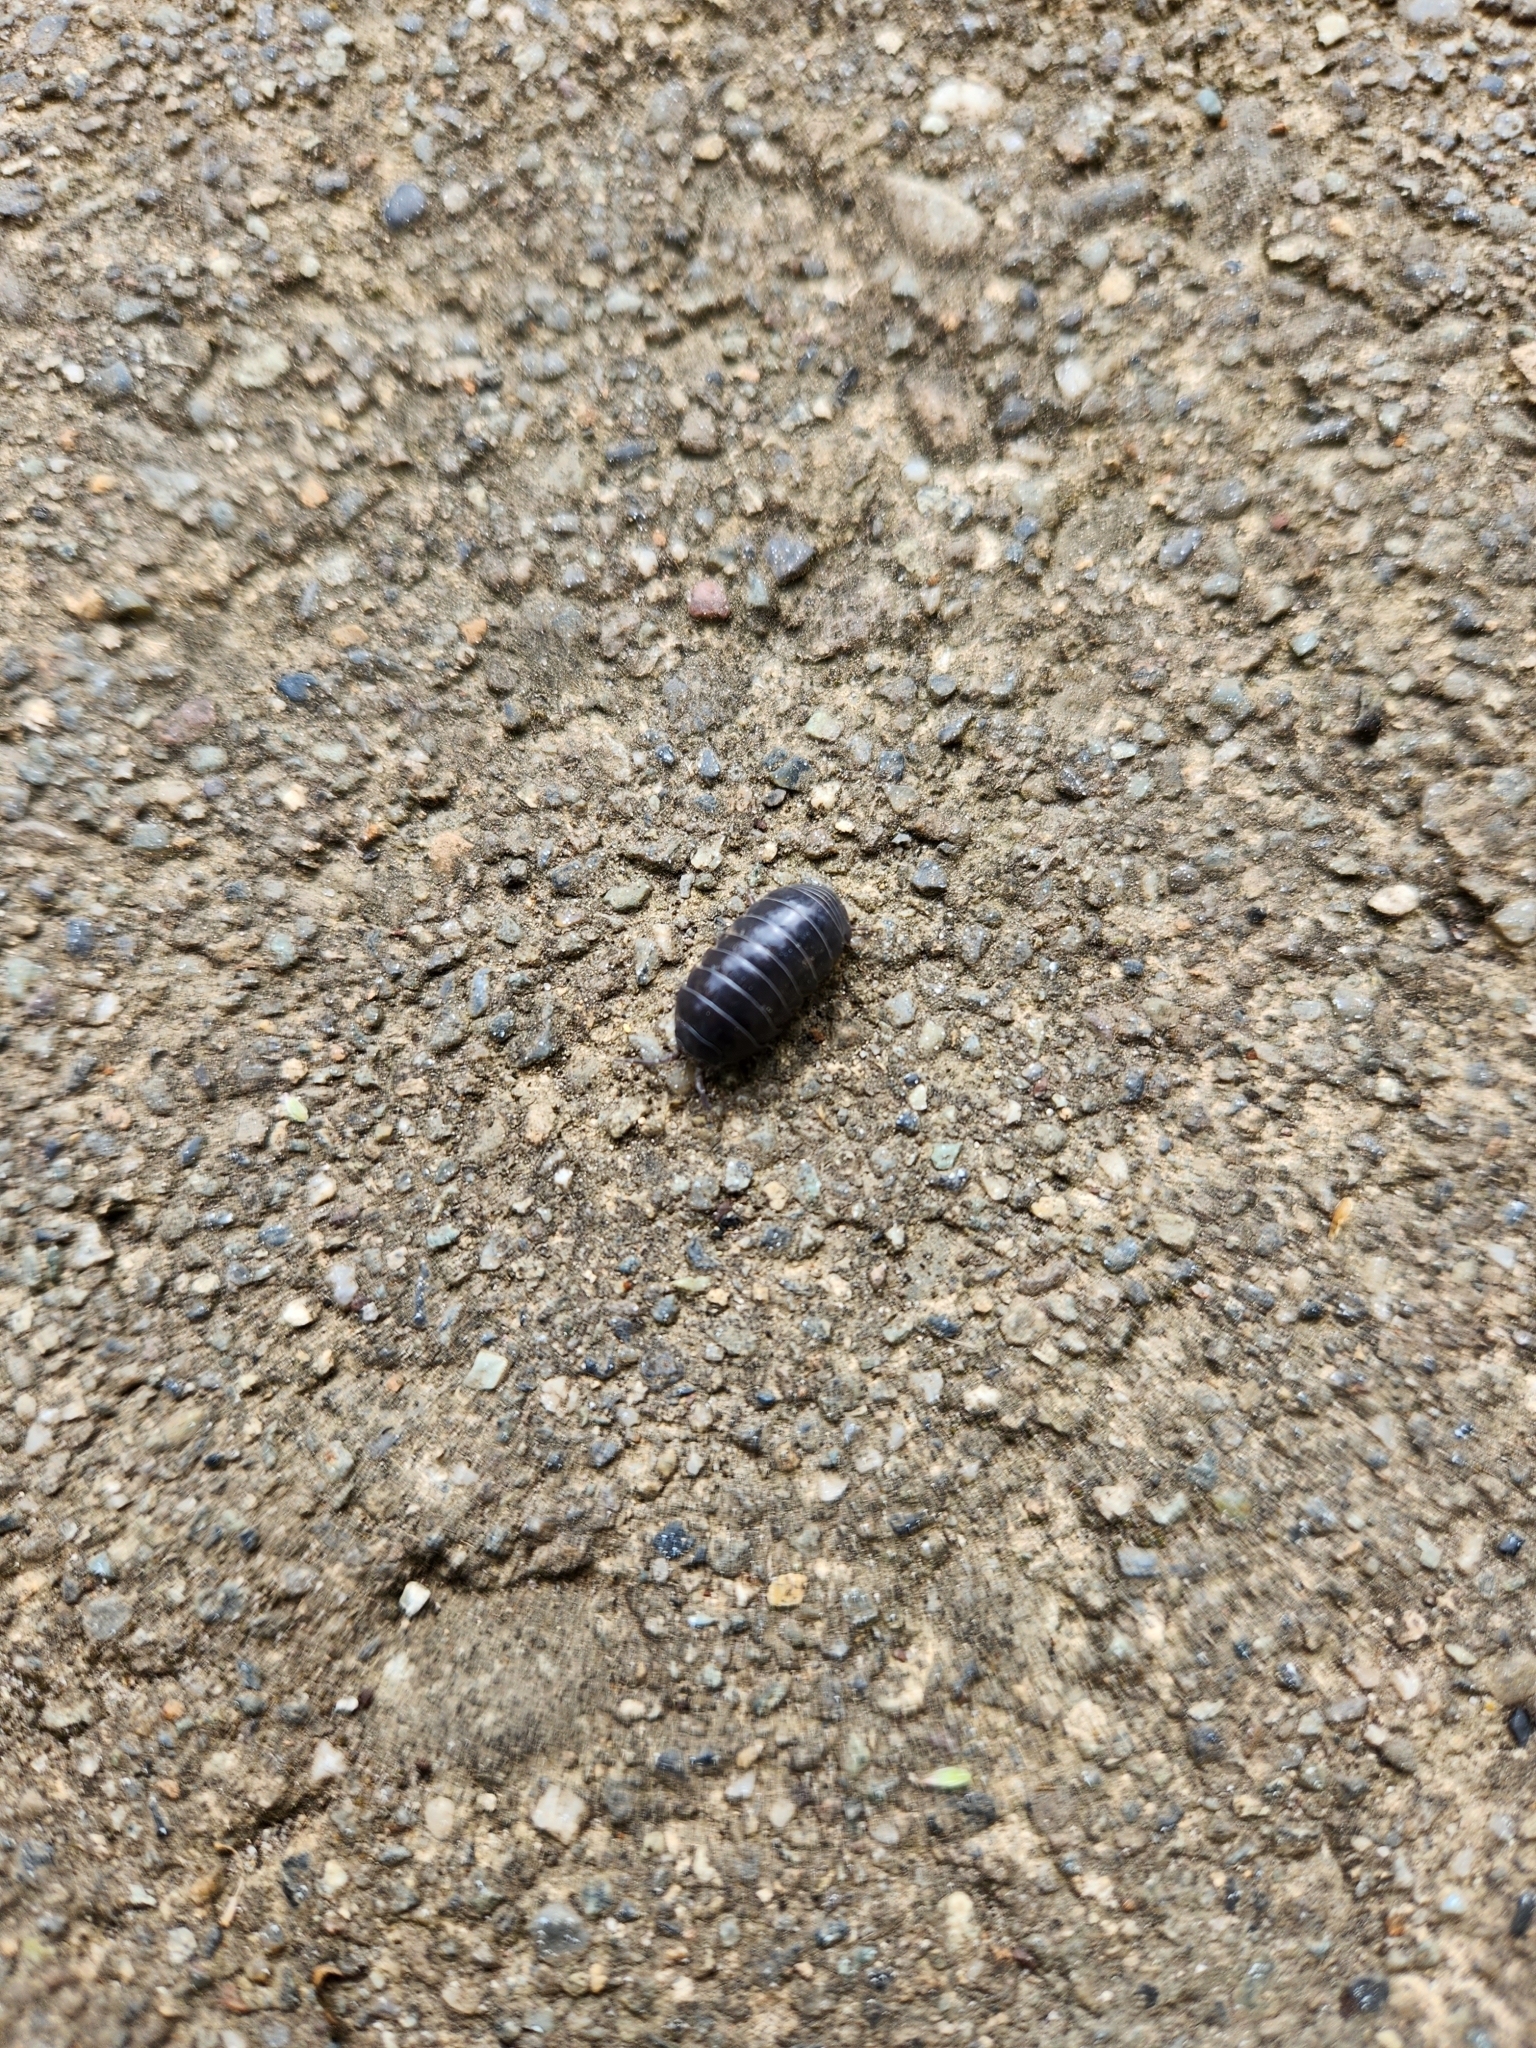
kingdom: Animalia
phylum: Arthropoda
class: Malacostraca
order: Isopoda
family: Armadillidiidae
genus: Armadillidium
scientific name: Armadillidium vulgare
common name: Common pill woodlouse
